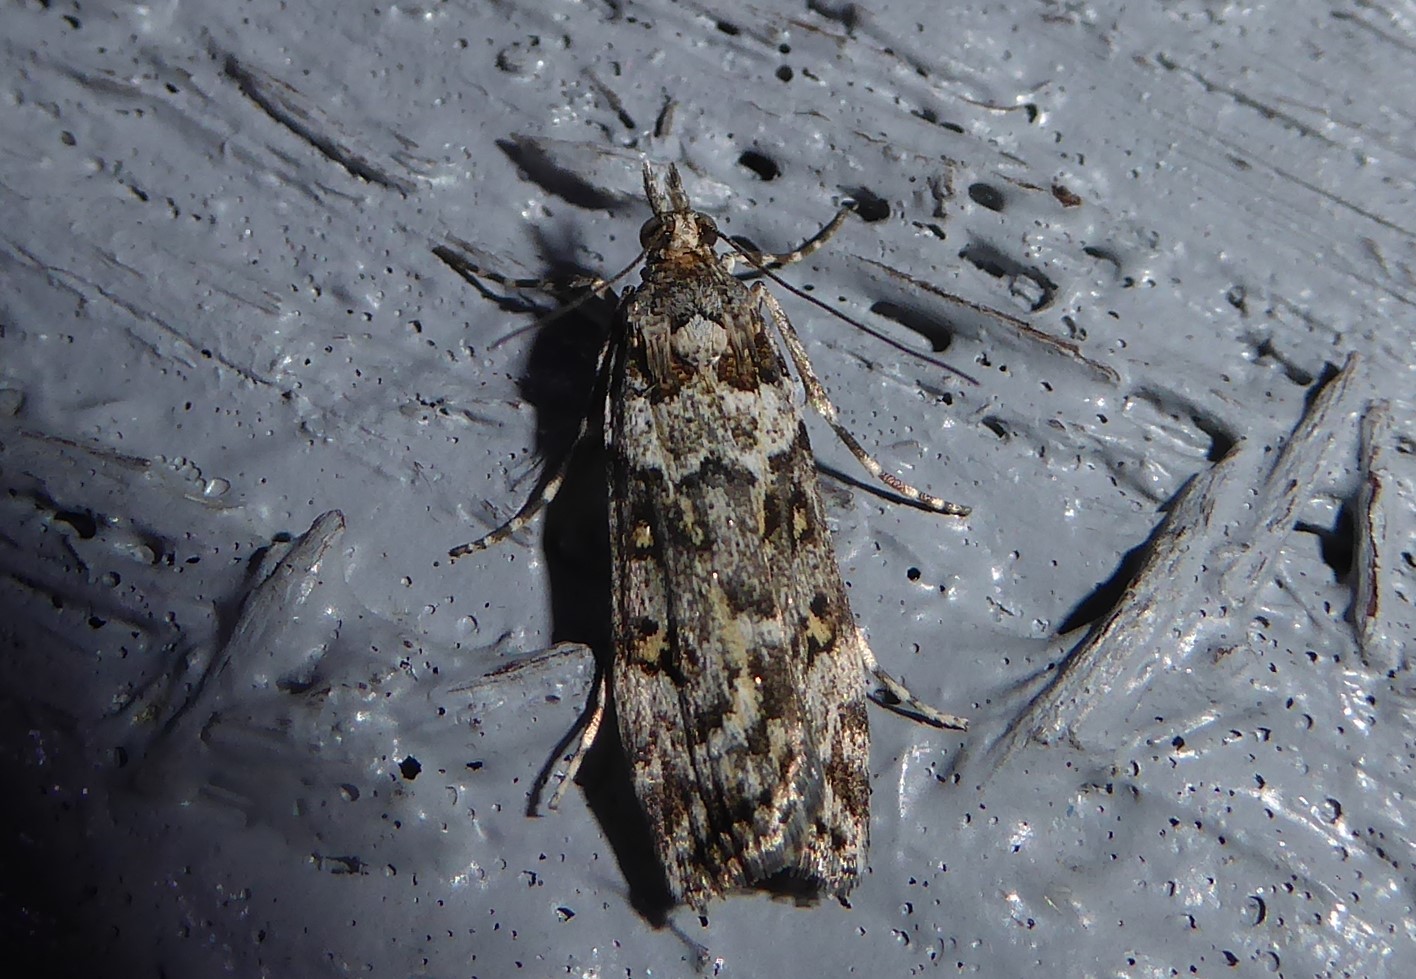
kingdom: Animalia
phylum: Arthropoda
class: Insecta
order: Lepidoptera
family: Crambidae
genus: Eudonia
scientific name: Eudonia diphtheralis
